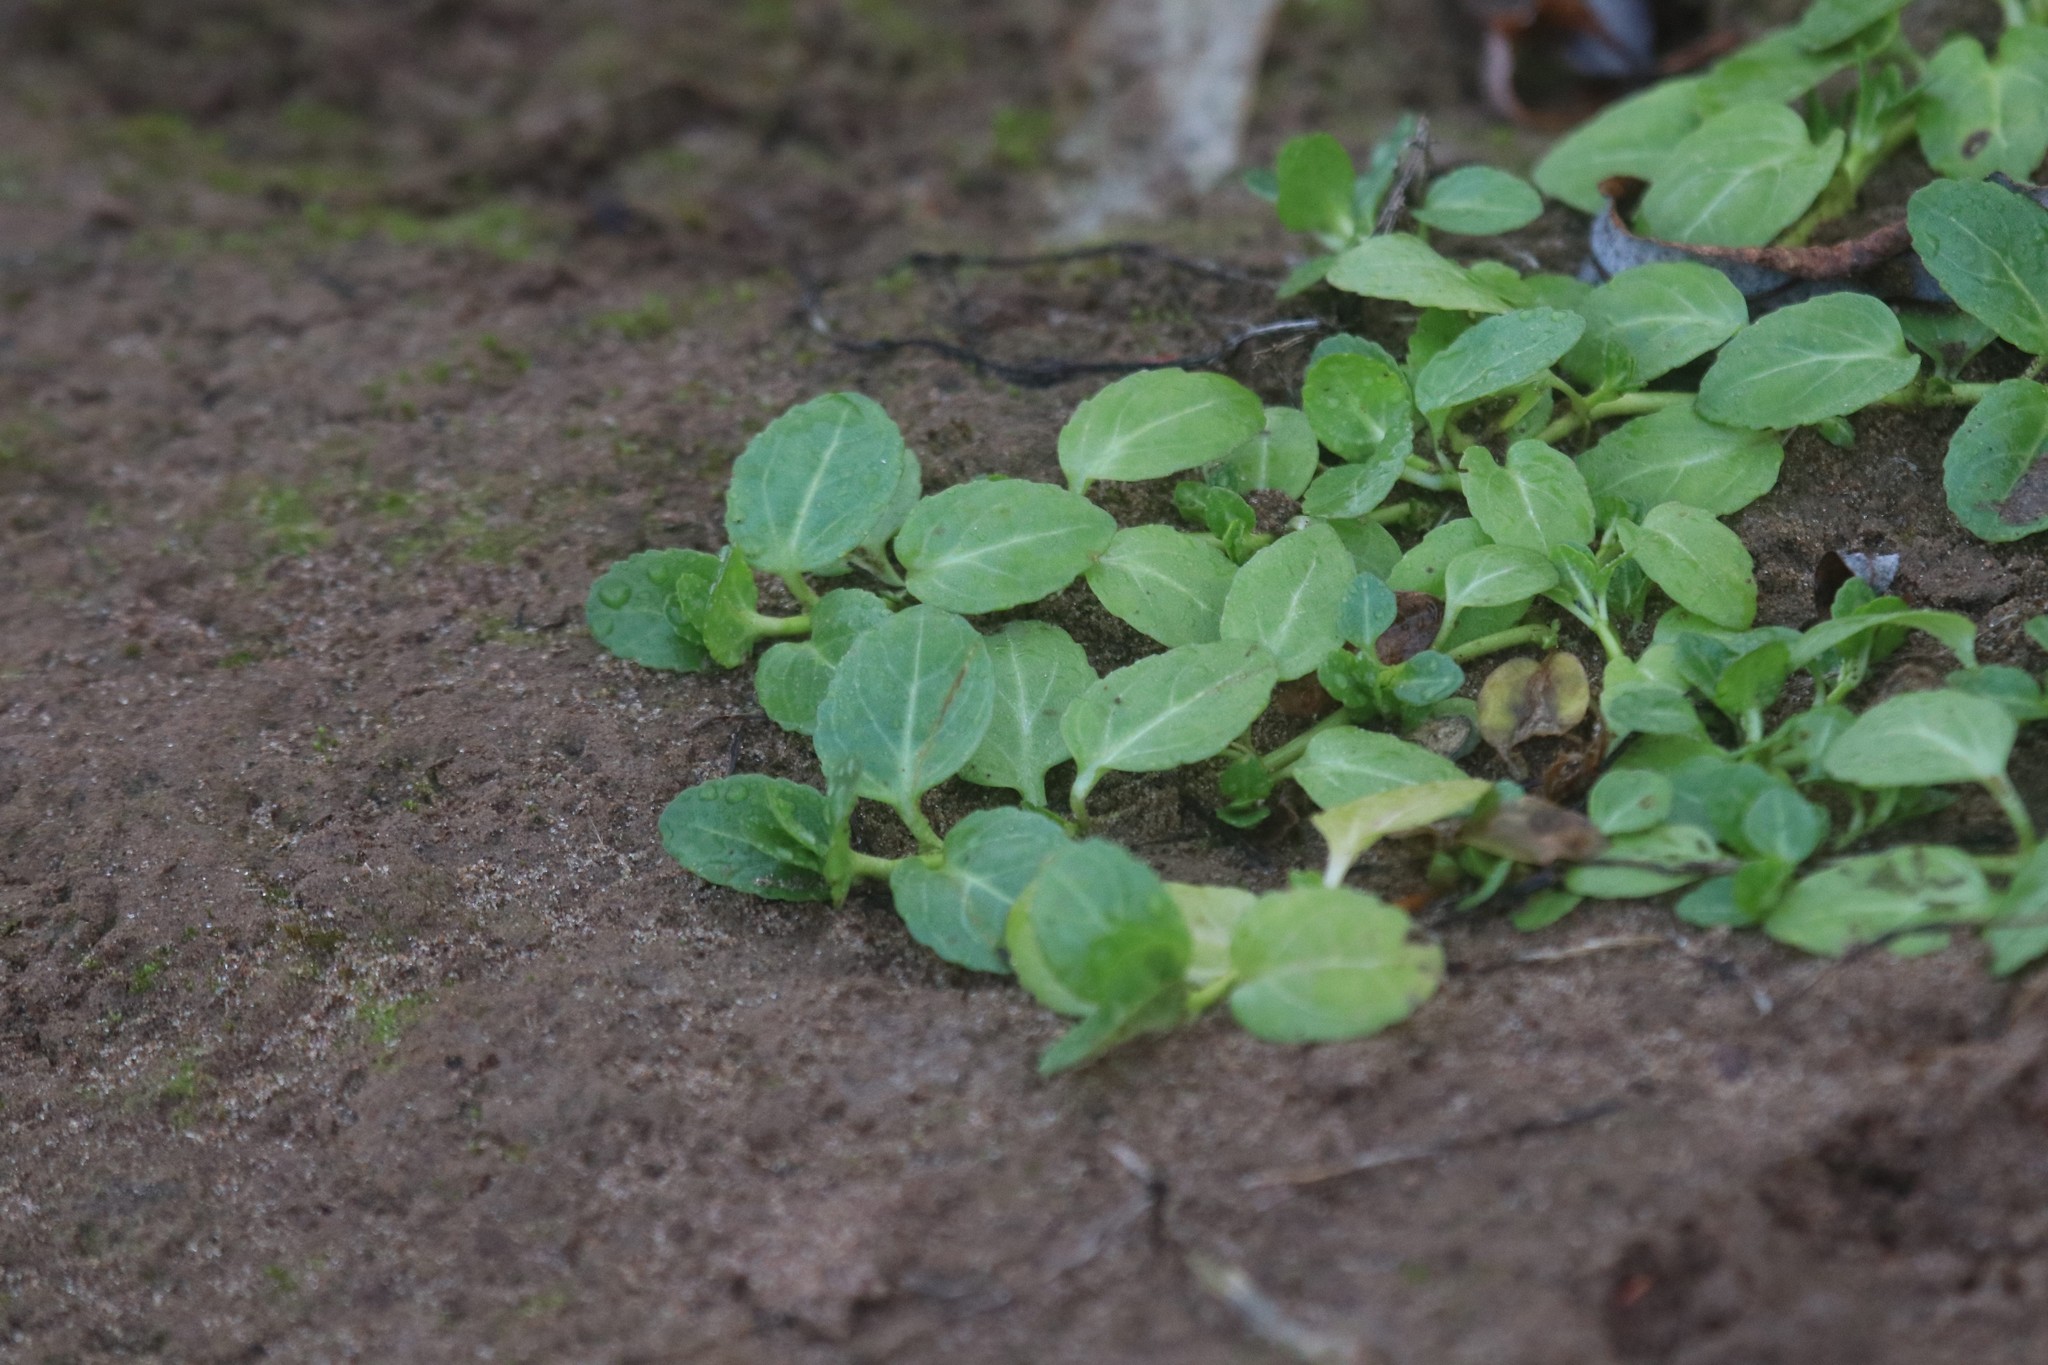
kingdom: Plantae
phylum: Tracheophyta
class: Magnoliopsida
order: Lamiales
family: Plantaginaceae
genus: Veronica
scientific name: Veronica beccabunga
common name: Brooklime
